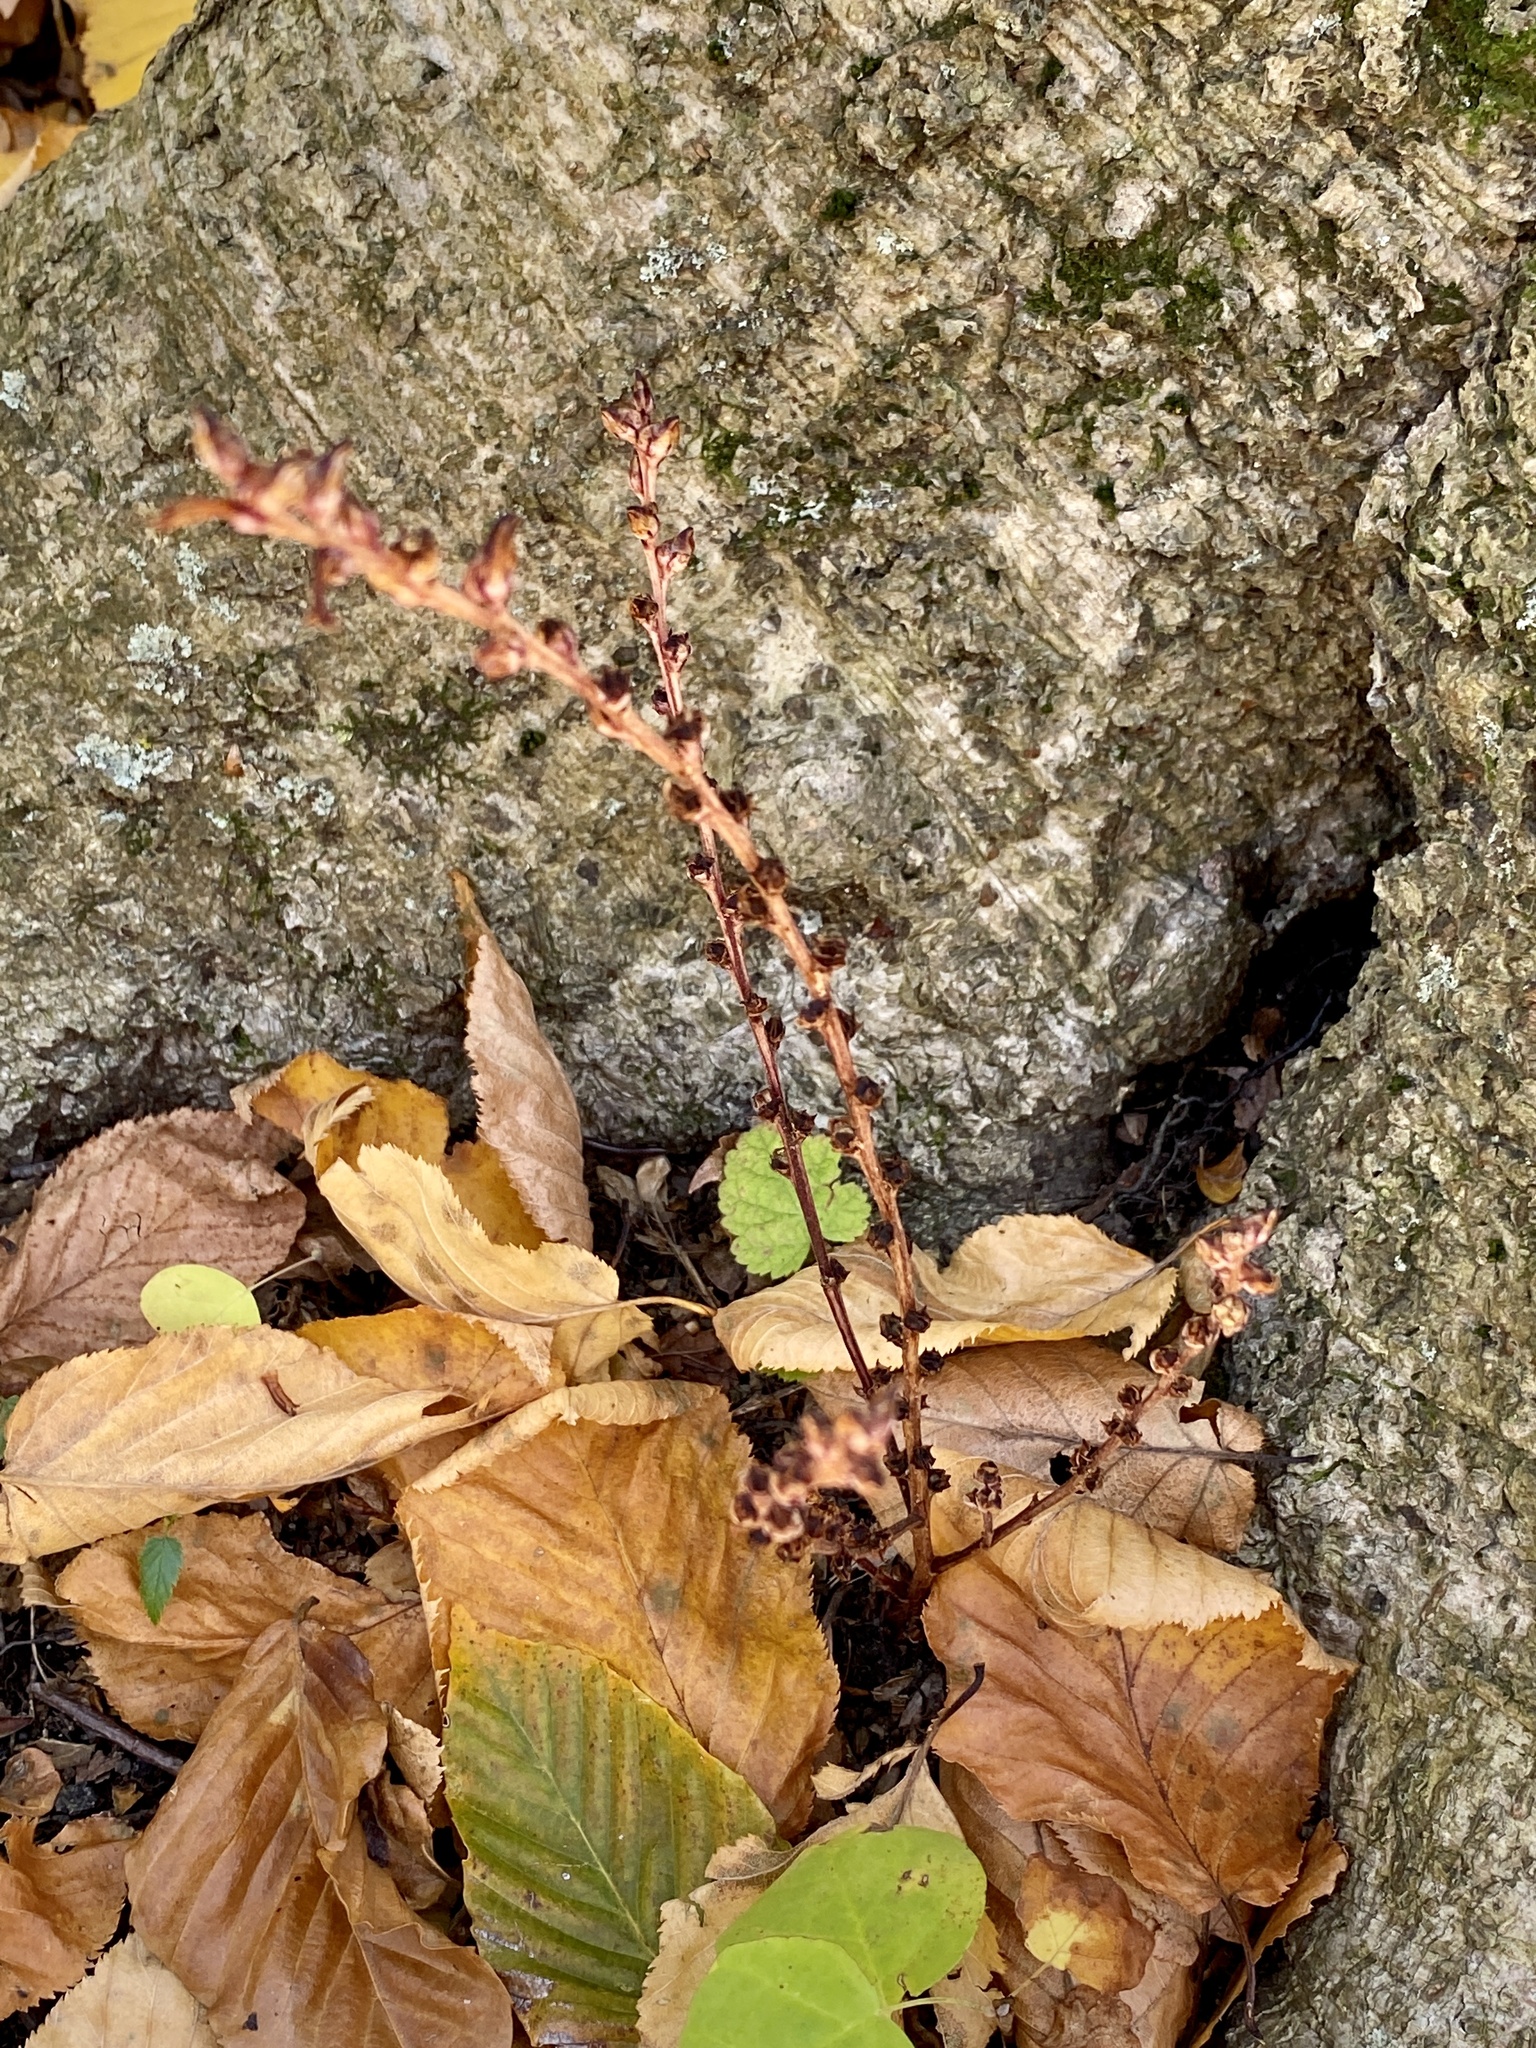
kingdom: Plantae
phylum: Tracheophyta
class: Magnoliopsida
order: Lamiales
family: Orobanchaceae
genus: Epifagus
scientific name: Epifagus virginiana
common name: Beechdrops
